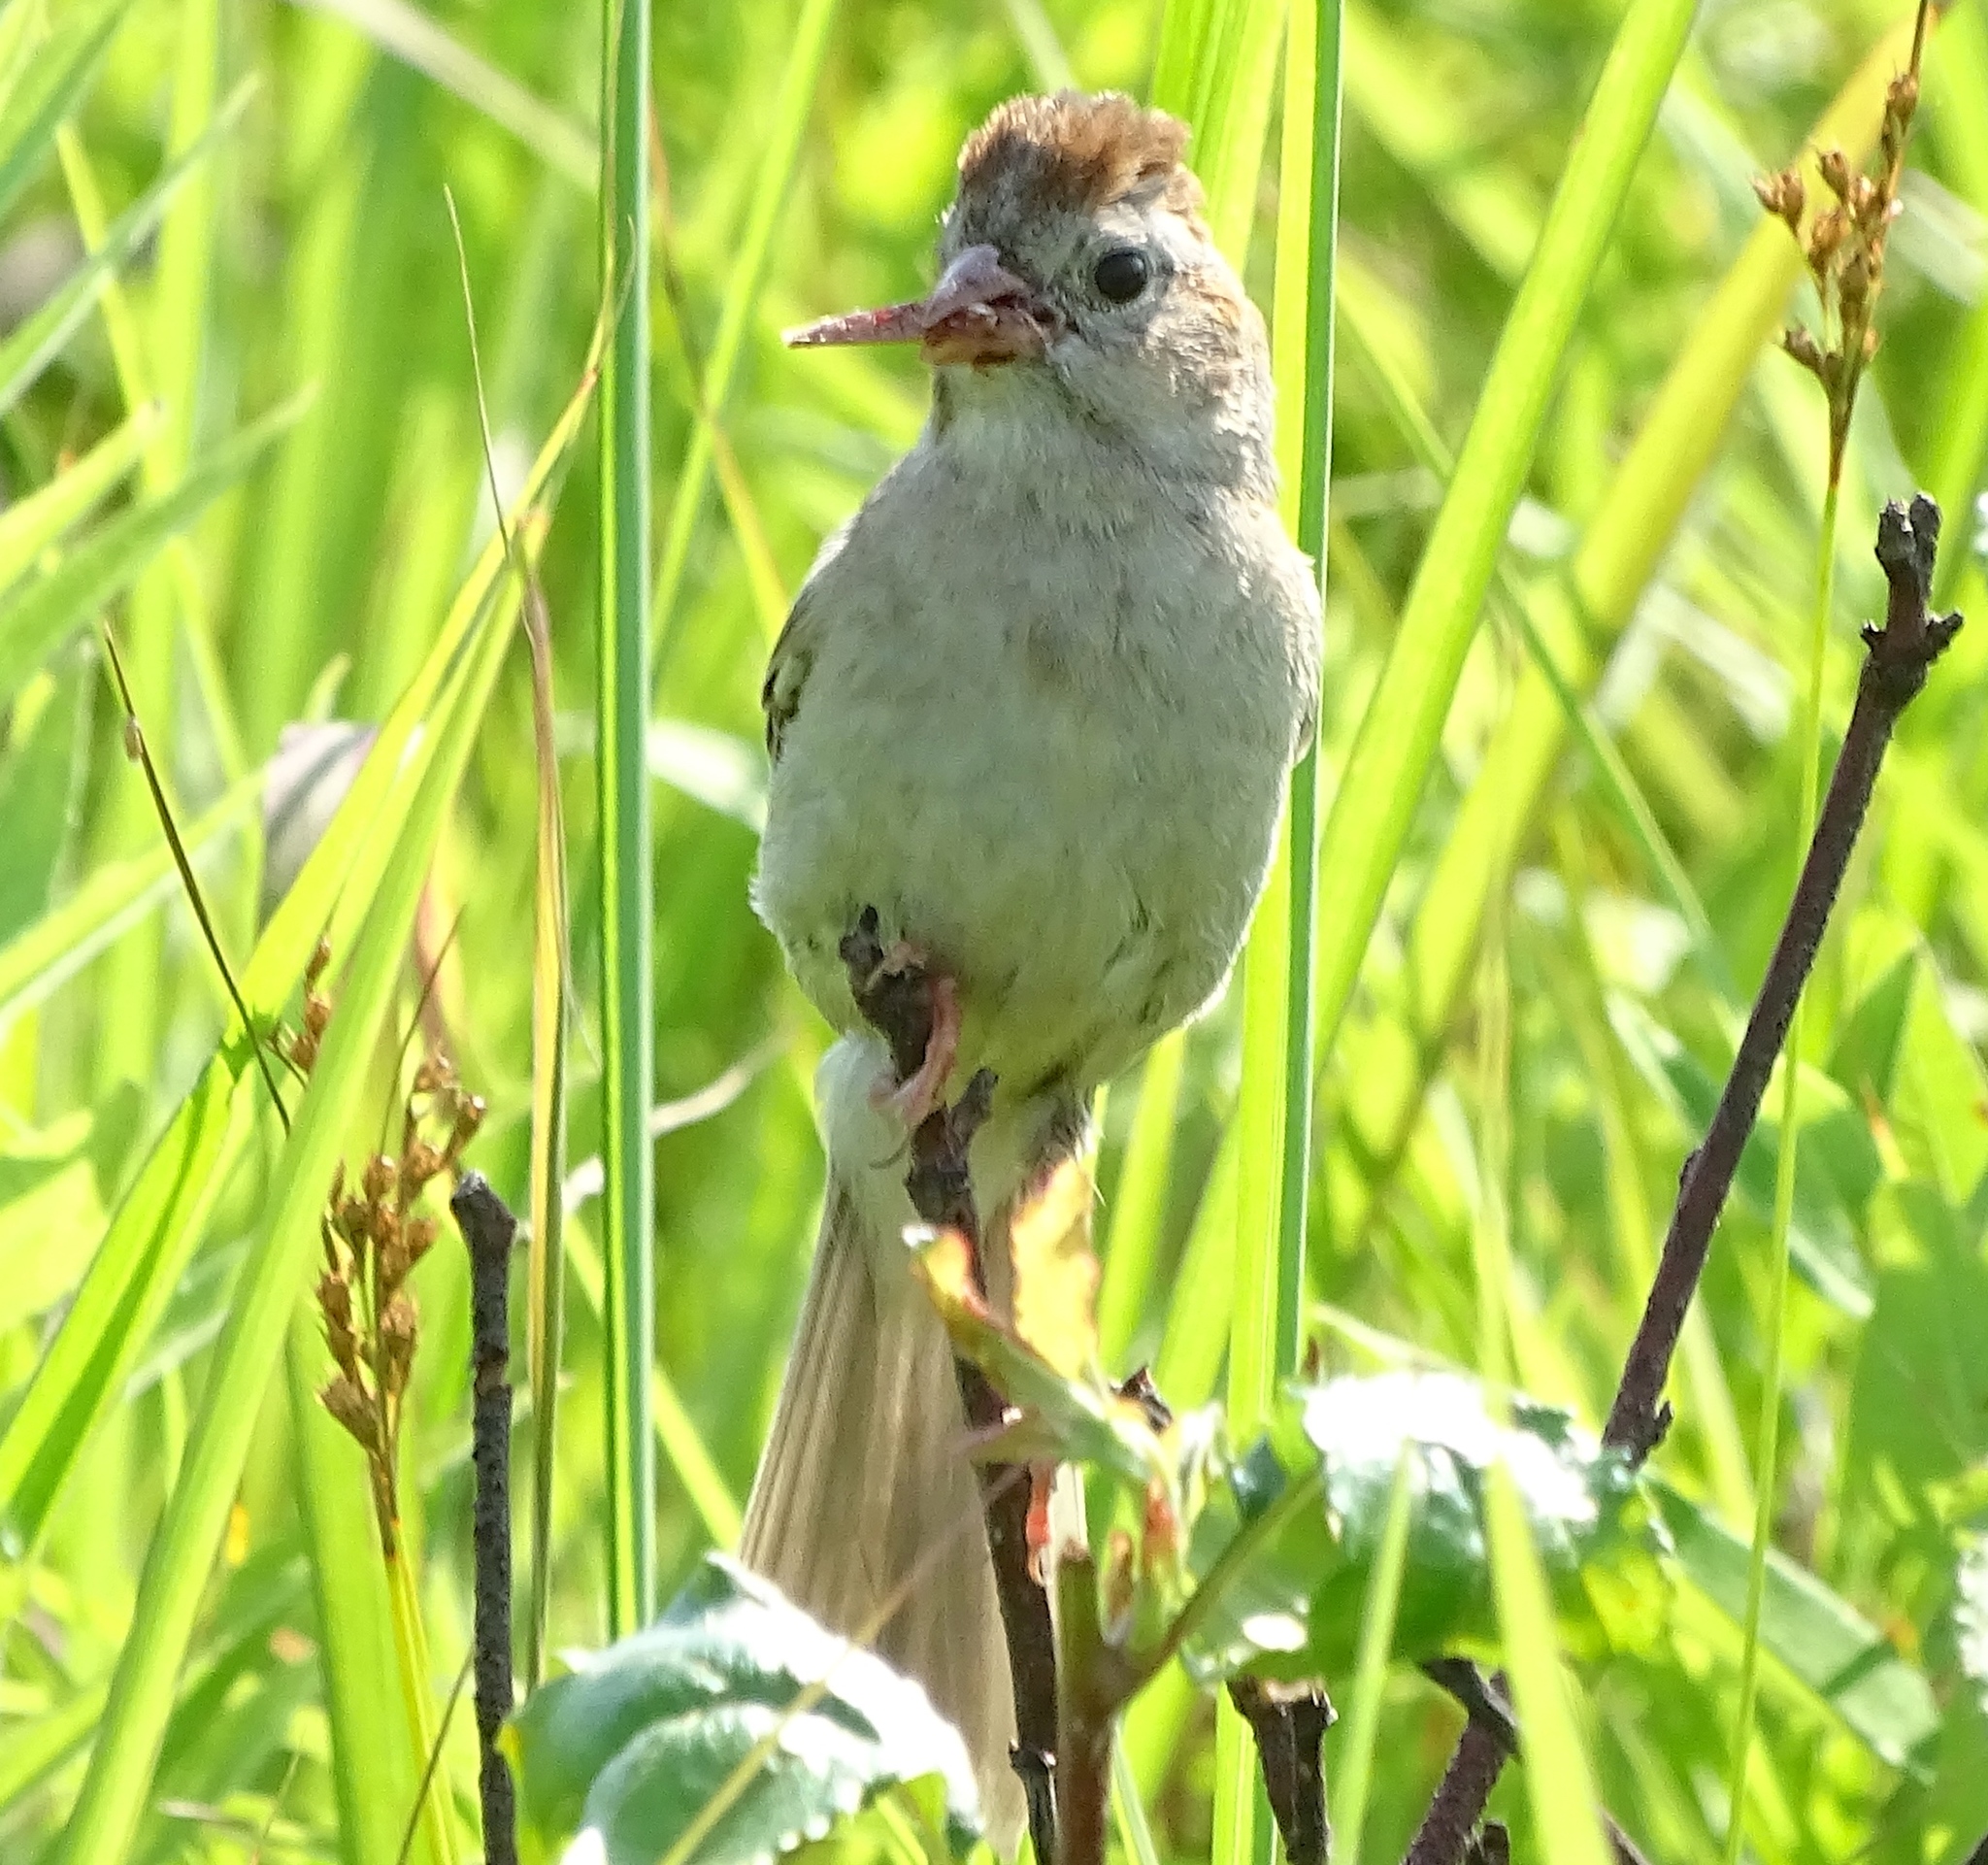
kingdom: Animalia
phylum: Chordata
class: Aves
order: Passeriformes
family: Passerellidae
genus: Spizella
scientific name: Spizella pusilla
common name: Field sparrow
